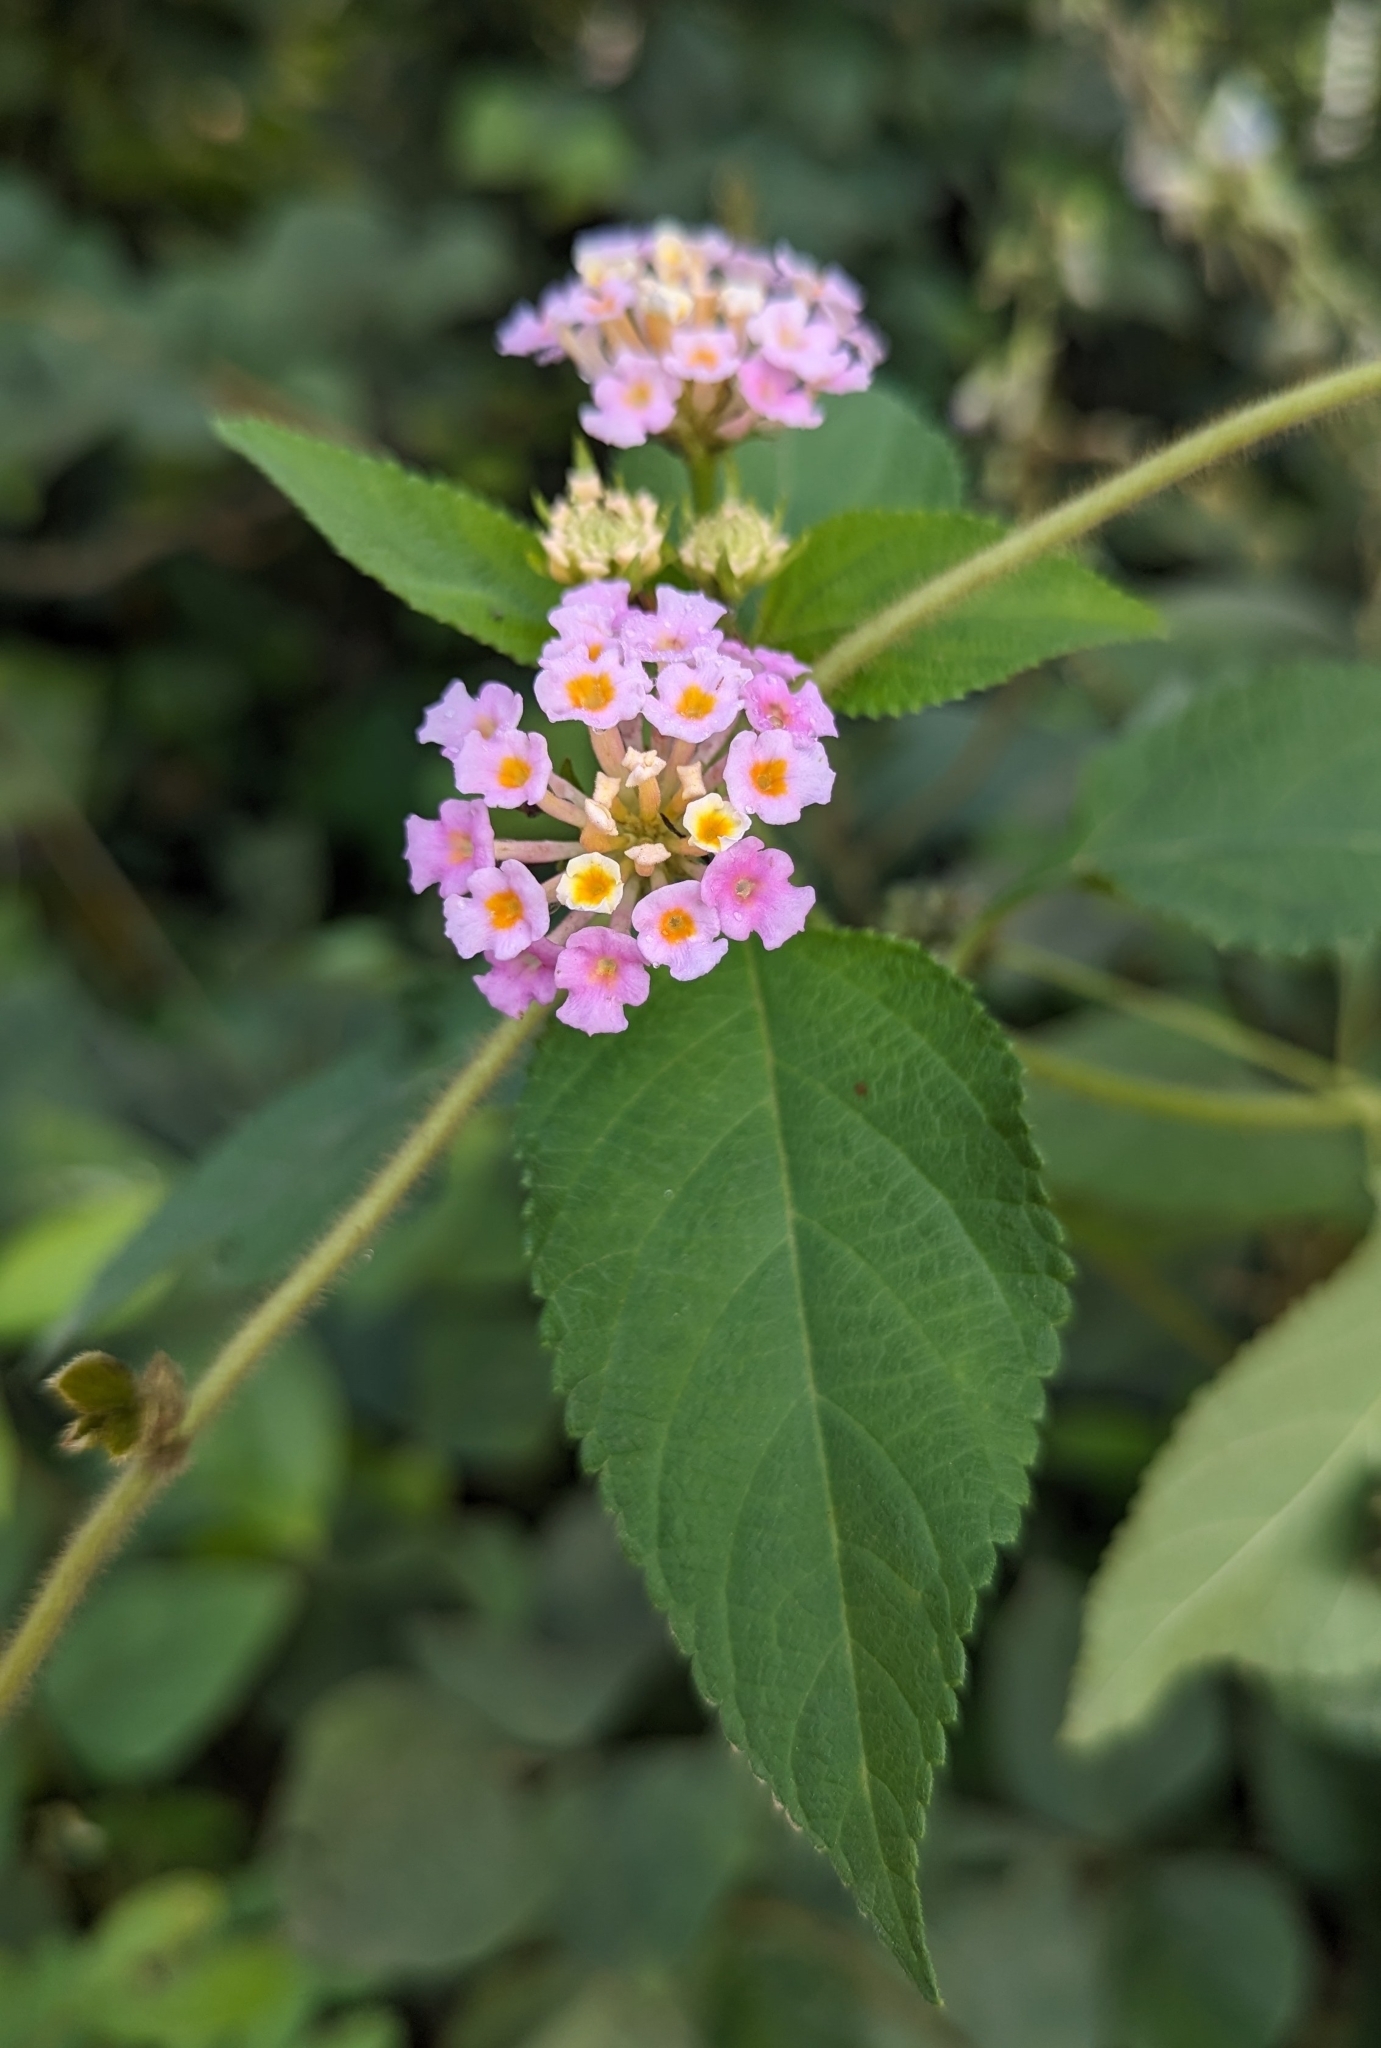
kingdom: Plantae
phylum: Tracheophyta
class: Magnoliopsida
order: Lamiales
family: Verbenaceae
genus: Lantana
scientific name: Lantana camara
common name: Lantana
